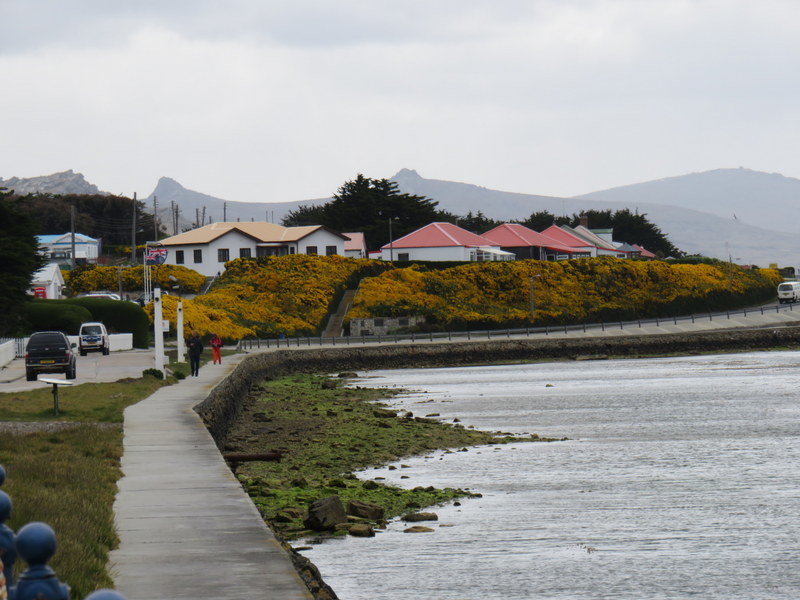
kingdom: Plantae
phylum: Tracheophyta
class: Magnoliopsida
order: Fabales
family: Fabaceae
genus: Ulex
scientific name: Ulex europaeus
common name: Common gorse
